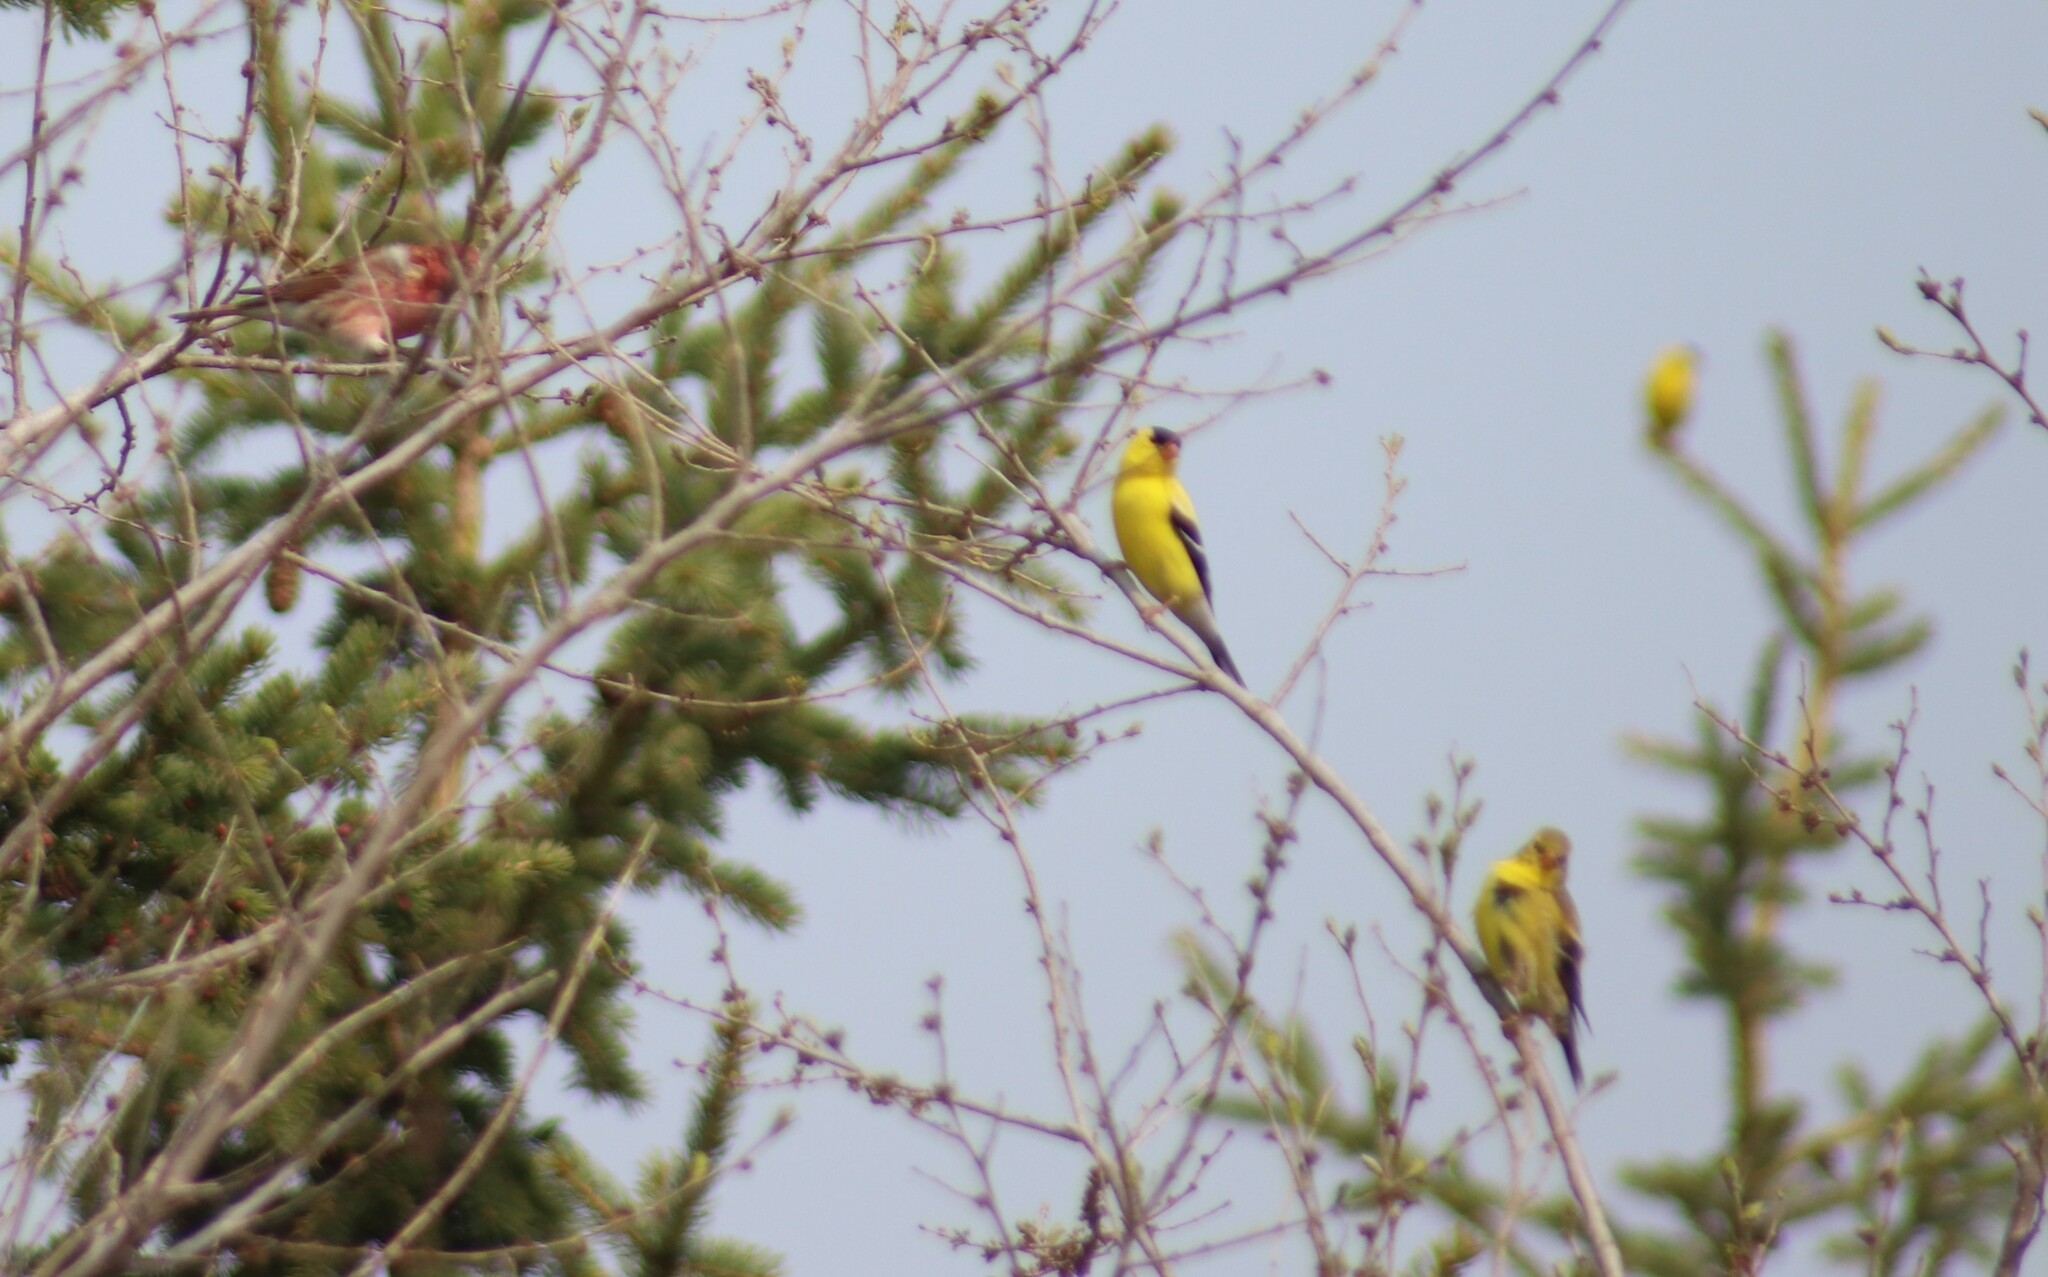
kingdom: Animalia
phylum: Chordata
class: Aves
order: Passeriformes
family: Fringillidae
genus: Haemorhous
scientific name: Haemorhous purpureus
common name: Purple finch
